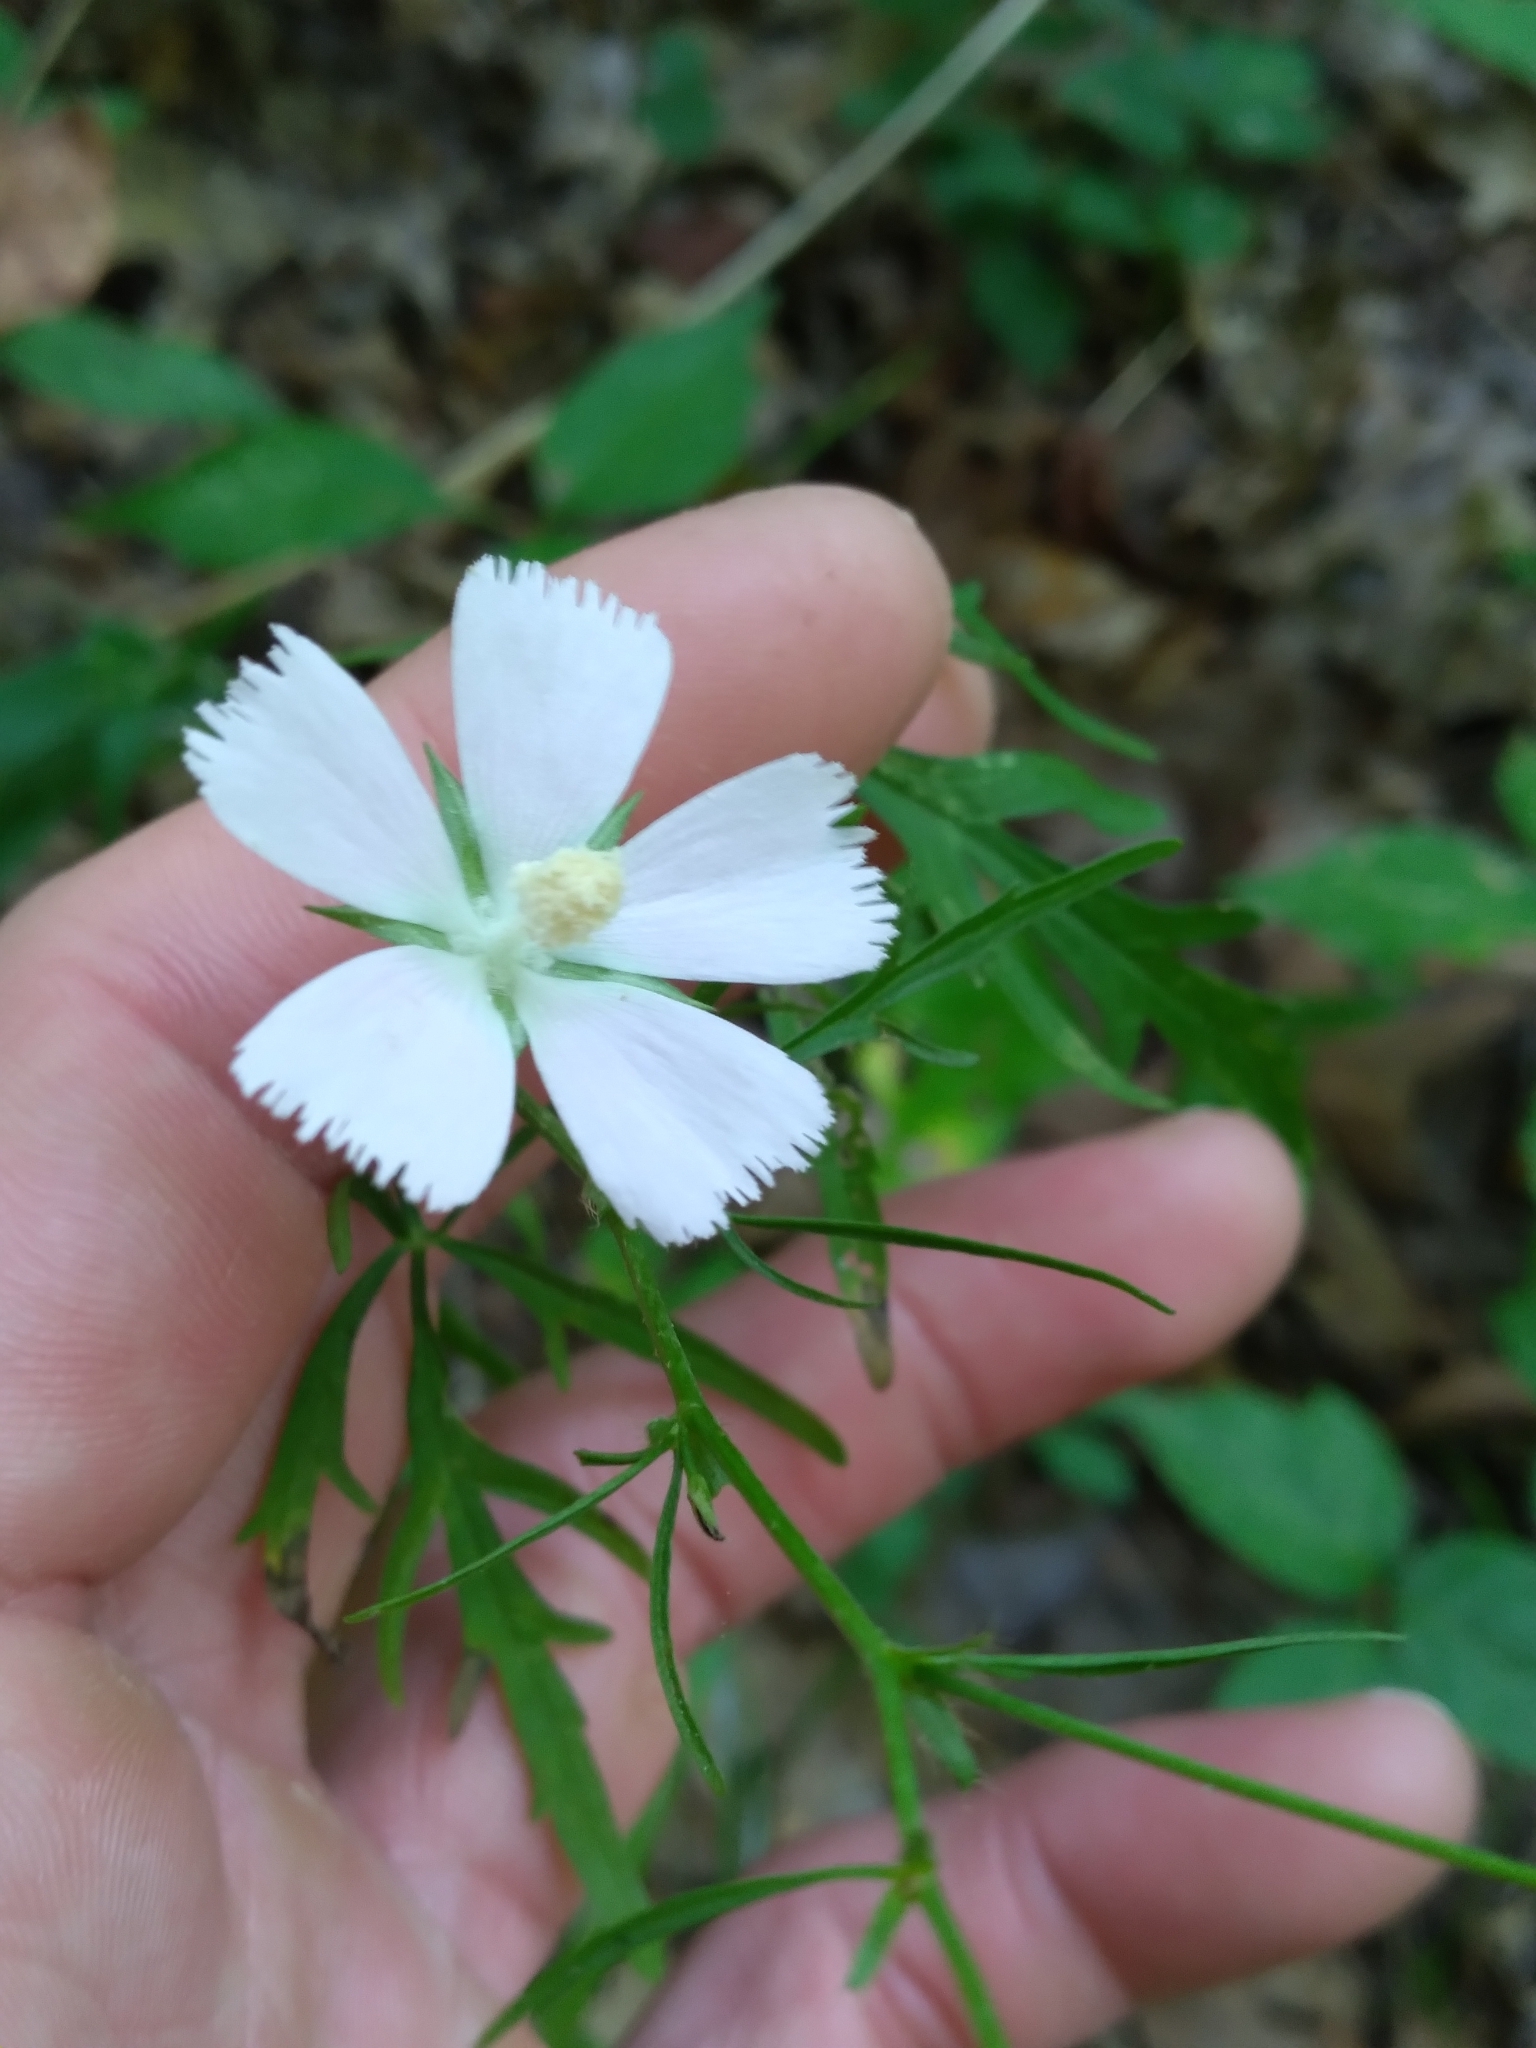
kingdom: Plantae
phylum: Tracheophyta
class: Magnoliopsida
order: Malvales
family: Malvaceae
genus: Callirhoe
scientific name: Callirhoe alcaeoides
